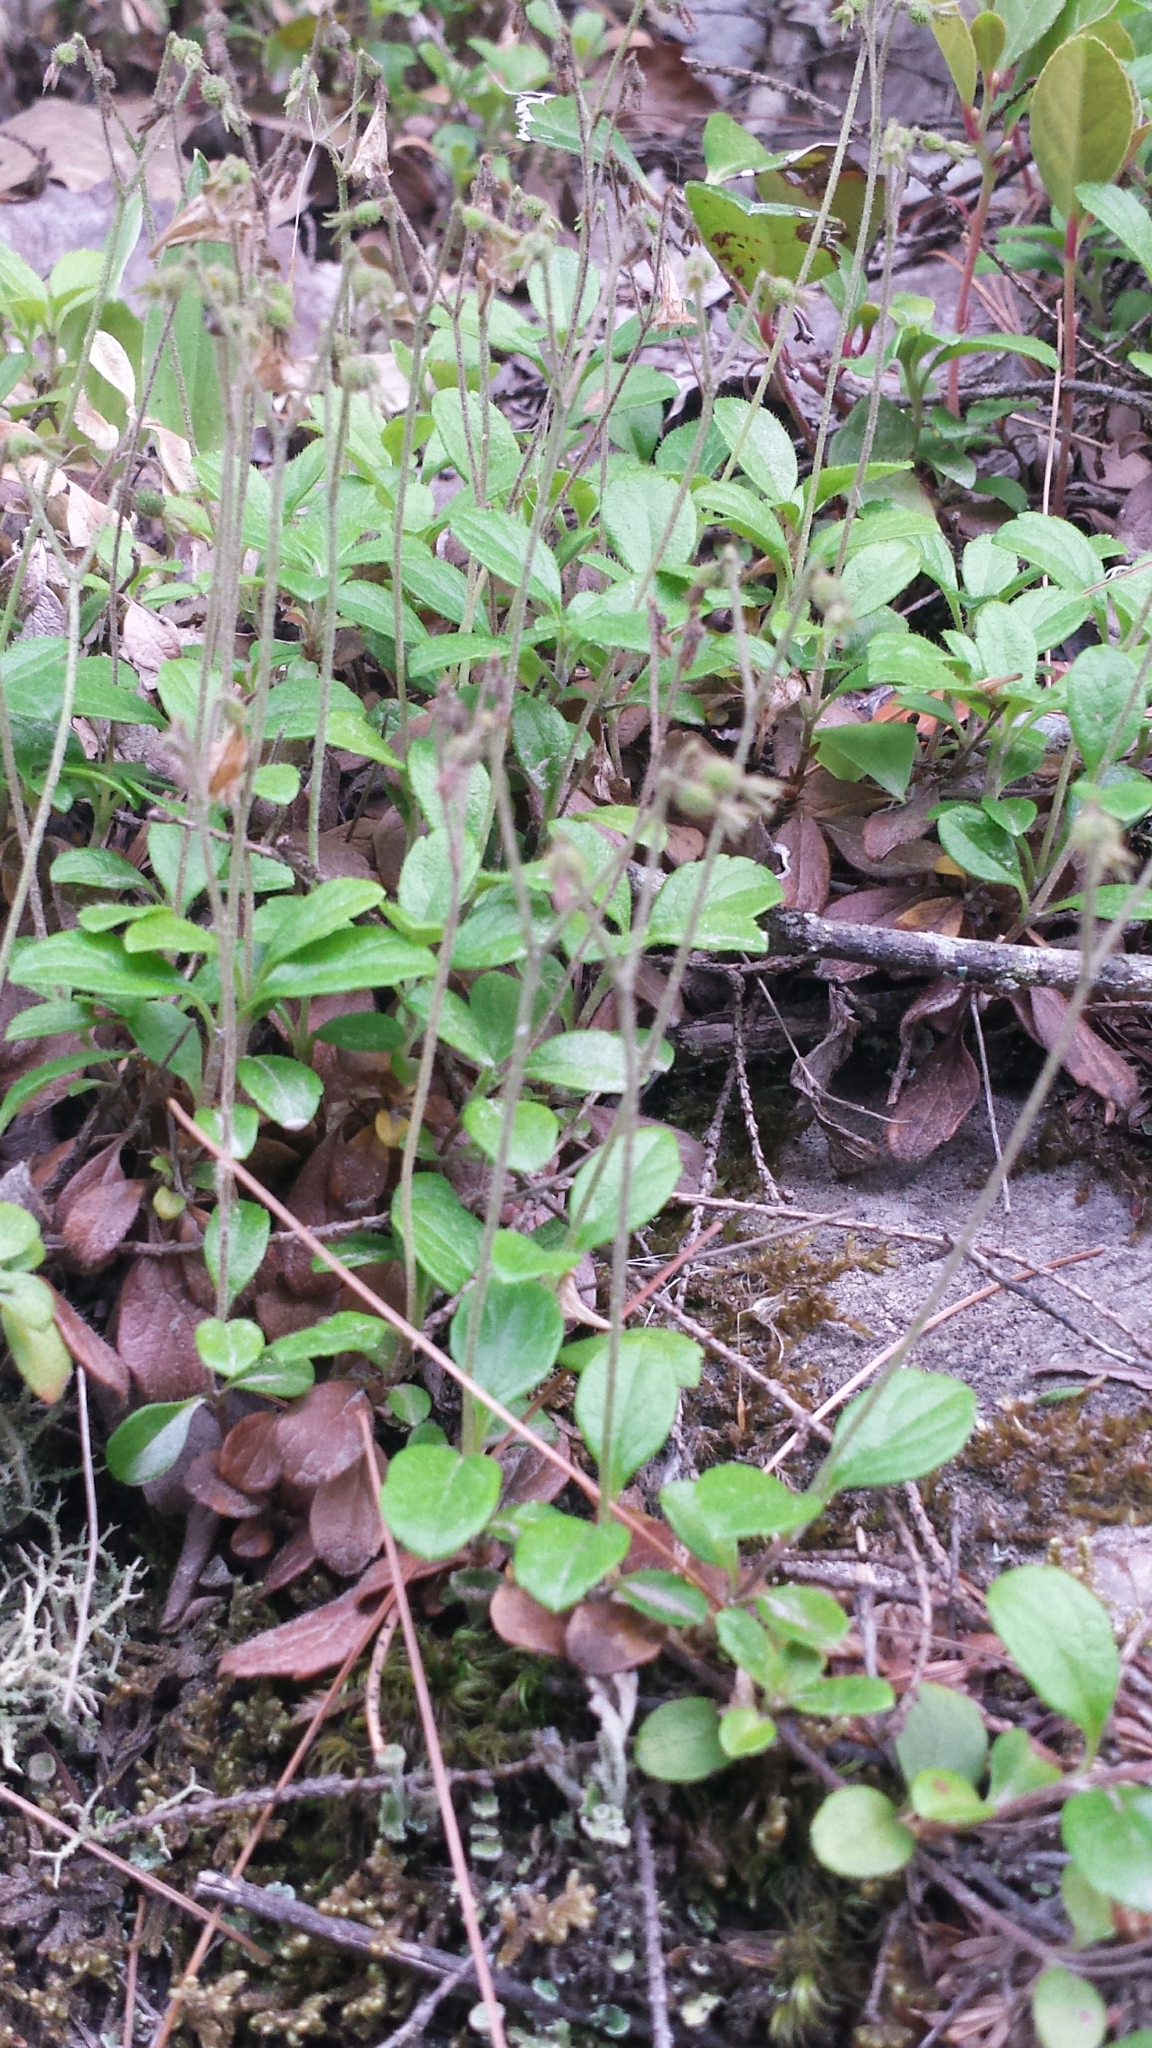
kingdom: Plantae
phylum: Tracheophyta
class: Magnoliopsida
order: Dipsacales
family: Caprifoliaceae
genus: Linnaea
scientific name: Linnaea borealis
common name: Twinflower
